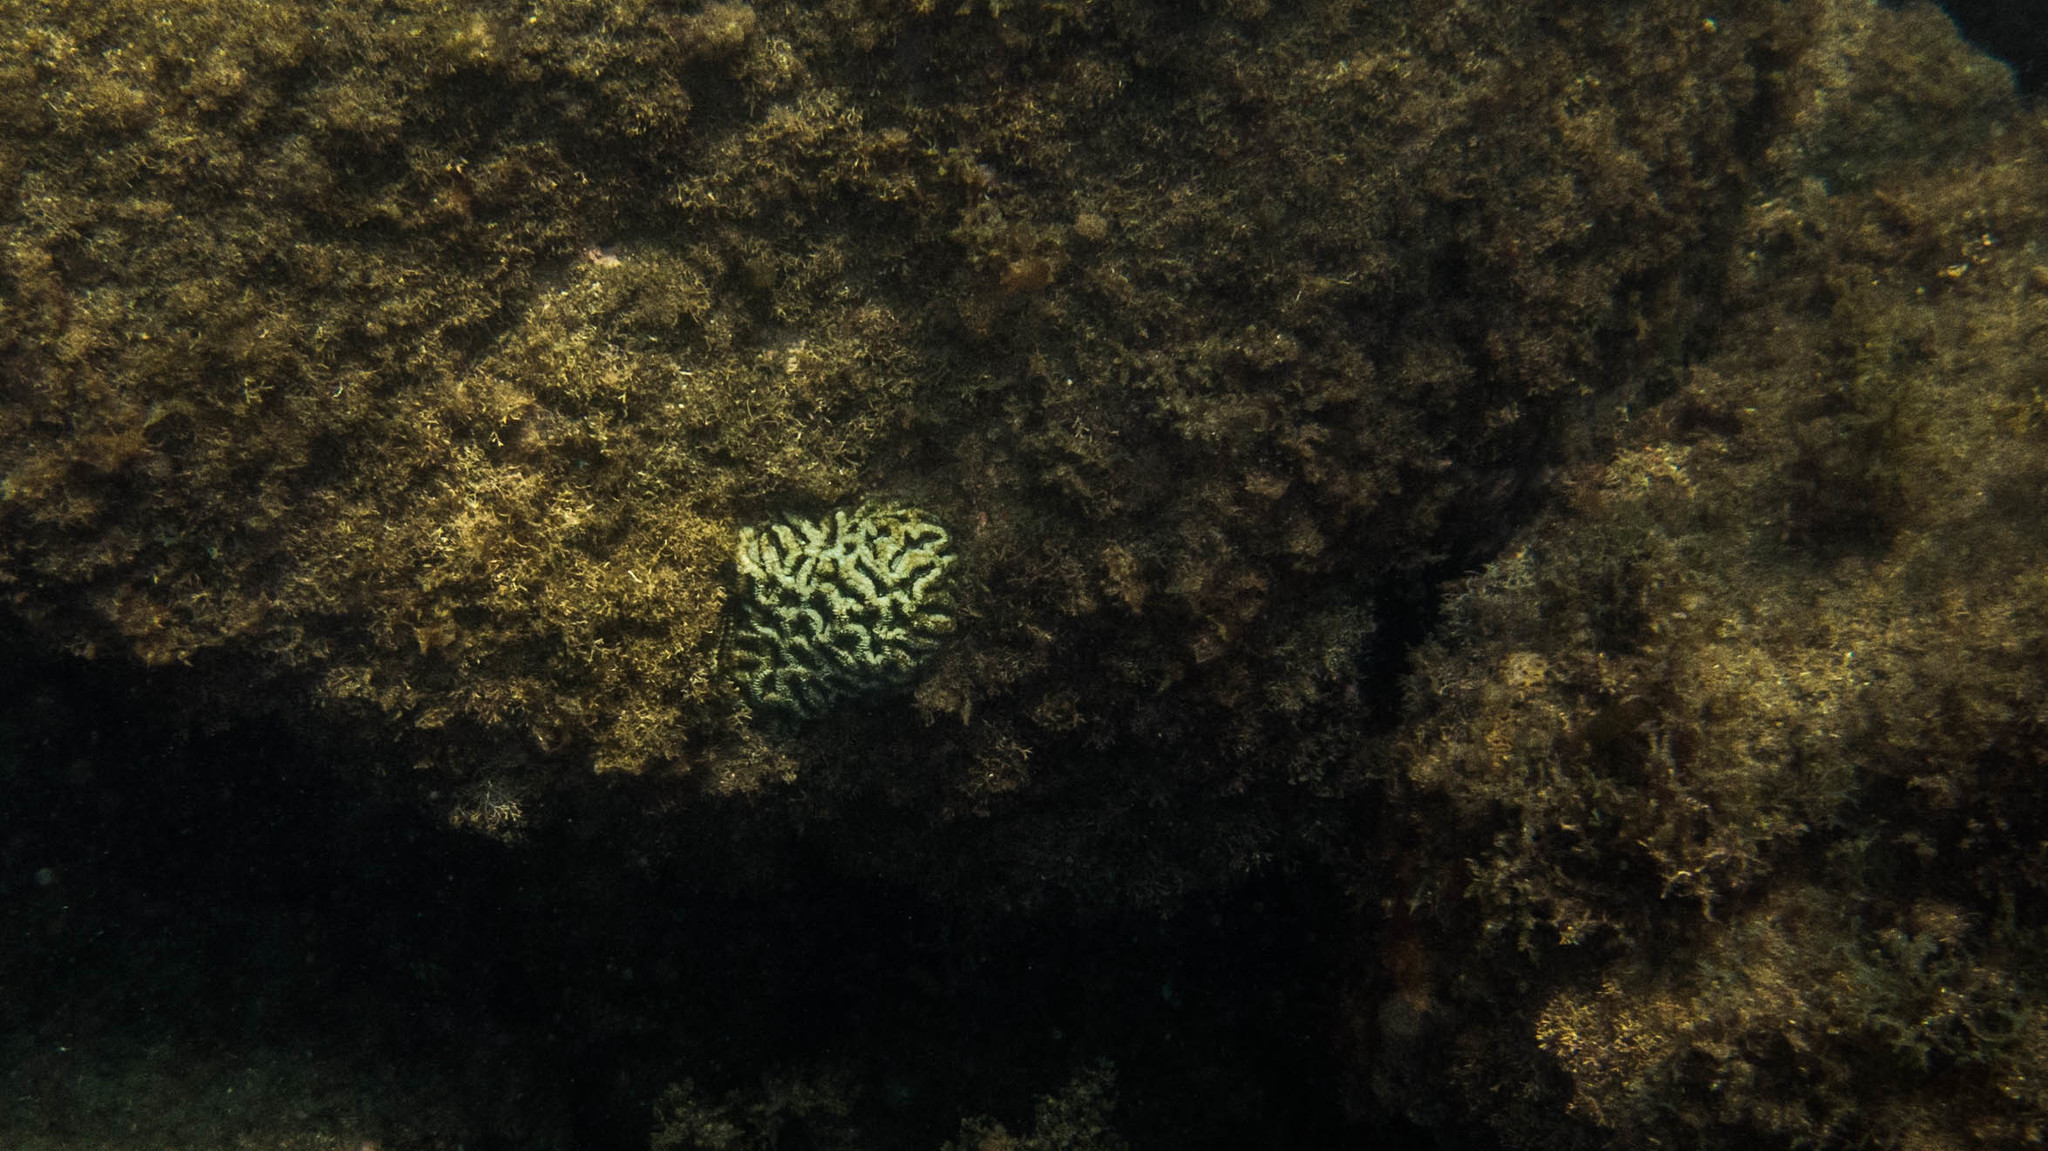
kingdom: Animalia
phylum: Cnidaria
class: Anthozoa
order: Scleractinia
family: Faviidae
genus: Mussismilia
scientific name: Mussismilia hispida
